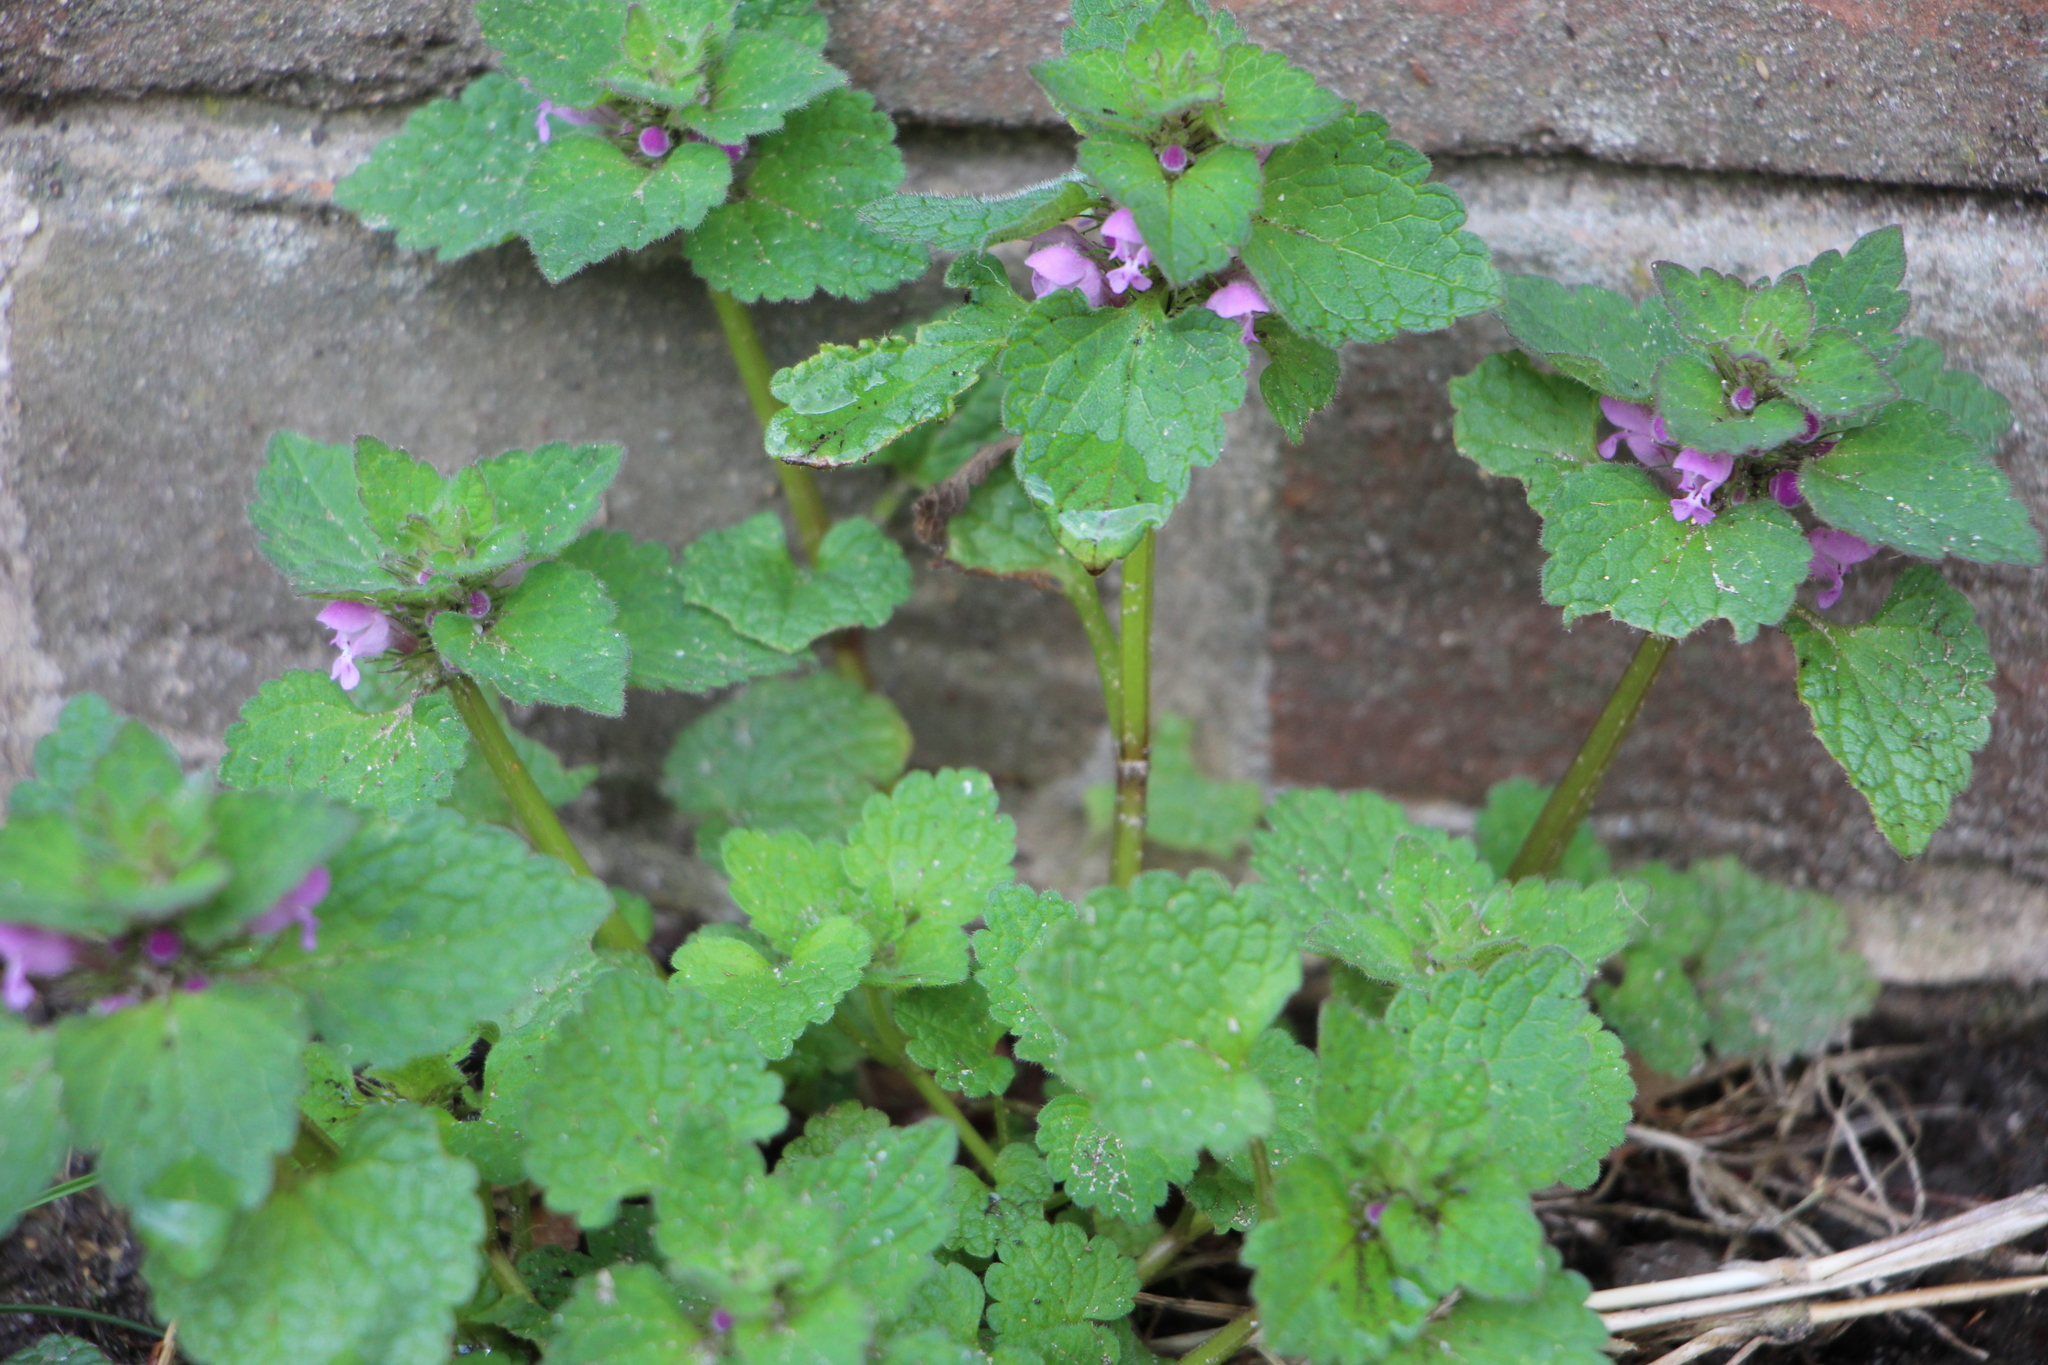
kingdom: Plantae
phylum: Tracheophyta
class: Magnoliopsida
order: Lamiales
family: Lamiaceae
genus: Lamium
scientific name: Lamium purpureum
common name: Red dead-nettle
